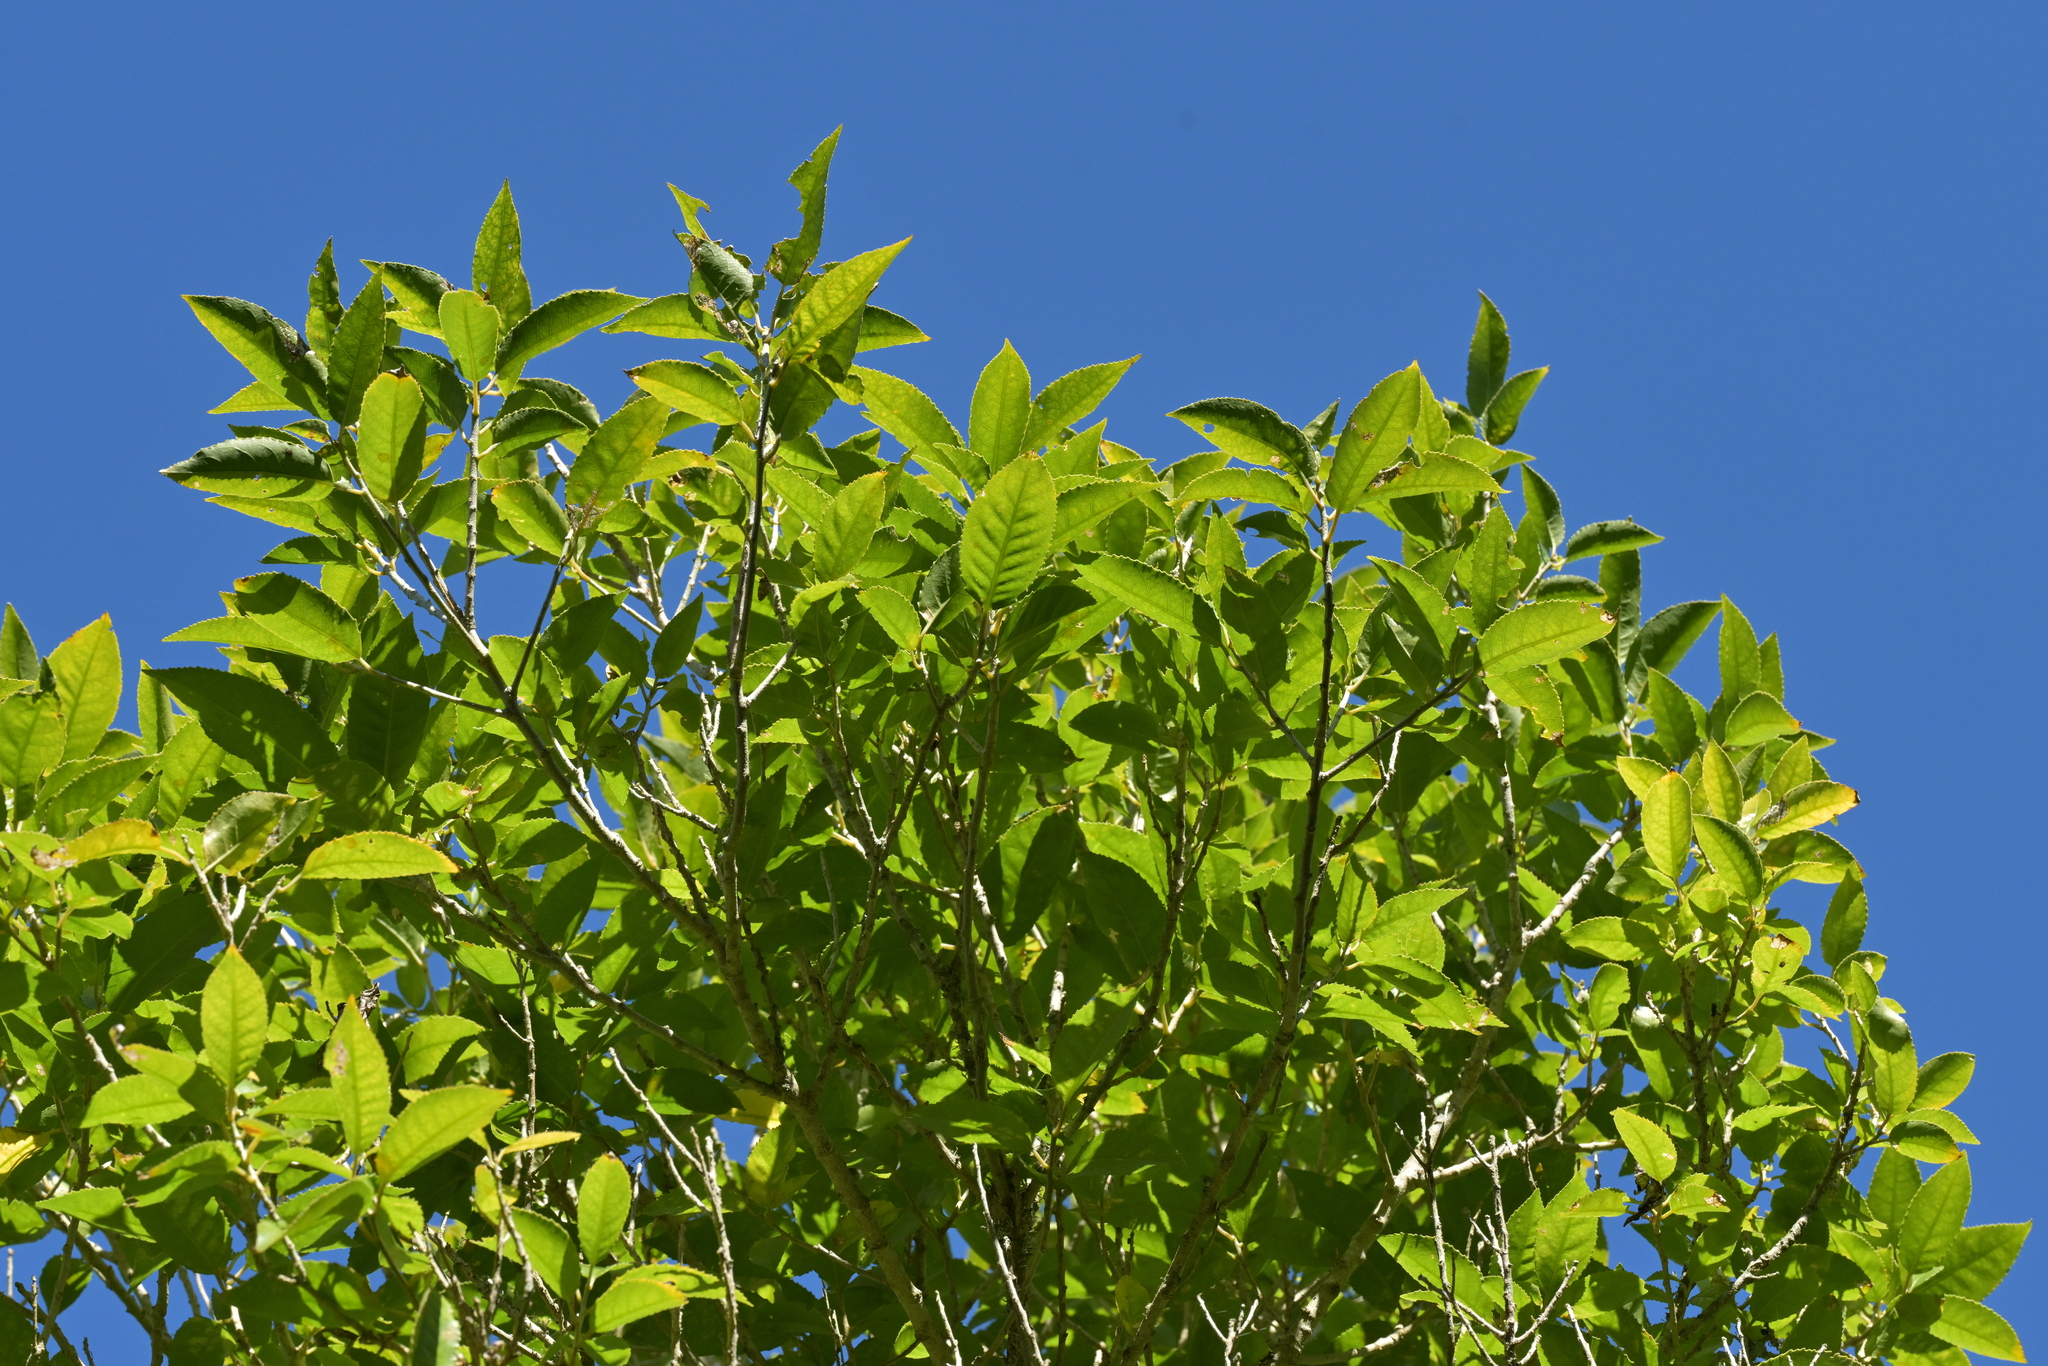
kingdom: Plantae
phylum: Tracheophyta
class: Magnoliopsida
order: Malpighiales
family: Violaceae
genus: Melicytus
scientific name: Melicytus ramiflorus
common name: Mahoe
